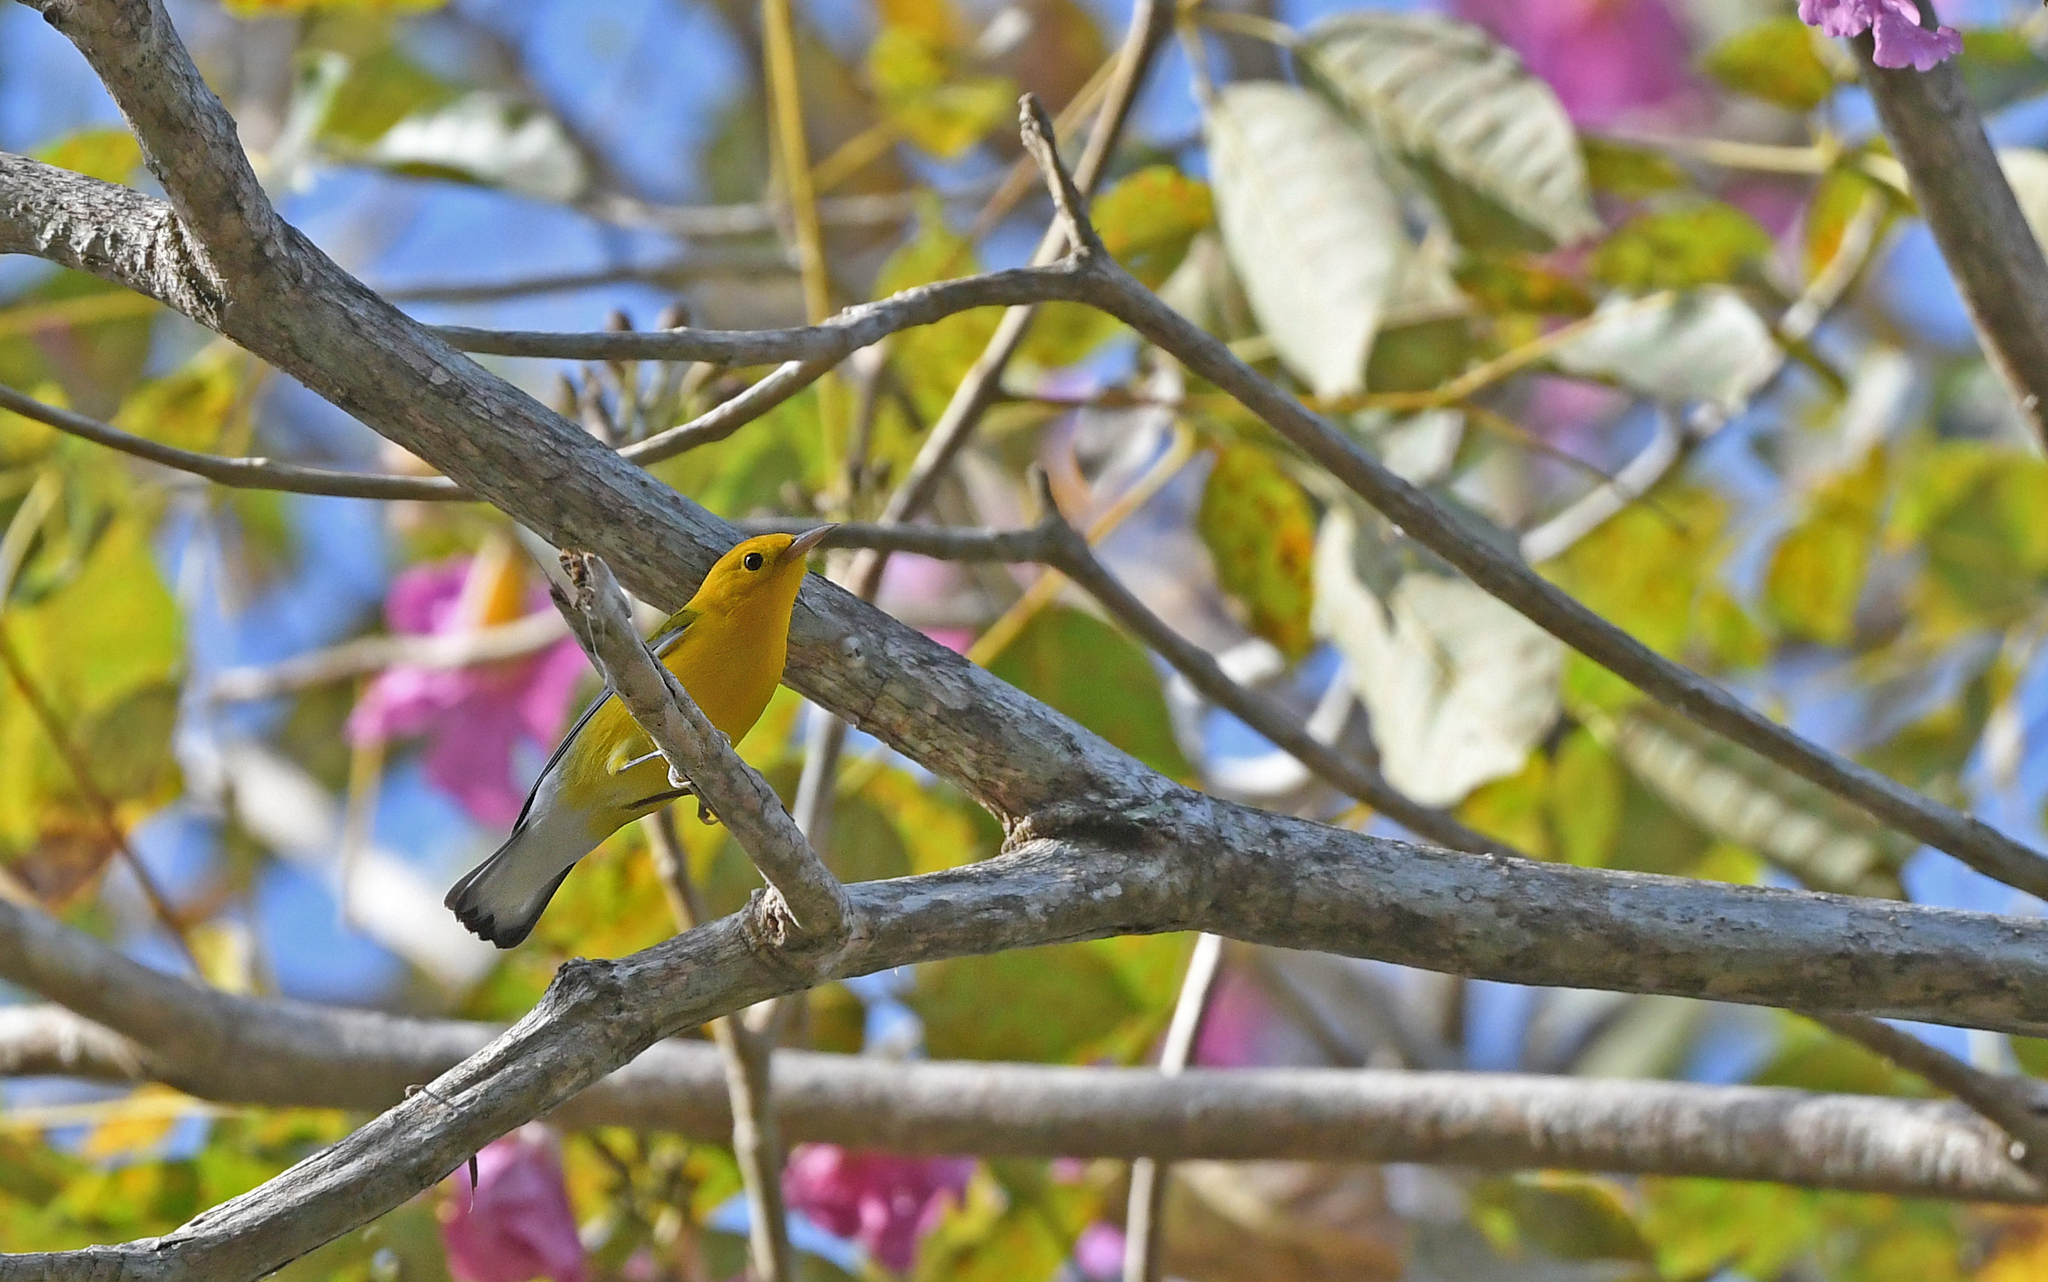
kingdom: Animalia
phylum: Chordata
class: Aves
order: Passeriformes
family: Parulidae
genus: Protonotaria
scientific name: Protonotaria citrea
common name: Prothonotary warbler
